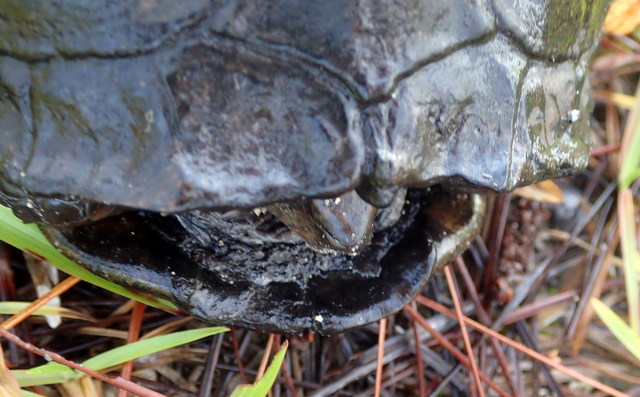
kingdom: Animalia
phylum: Chordata
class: Testudines
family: Emydidae
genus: Terrapene
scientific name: Terrapene carolina
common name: Common box turtle
